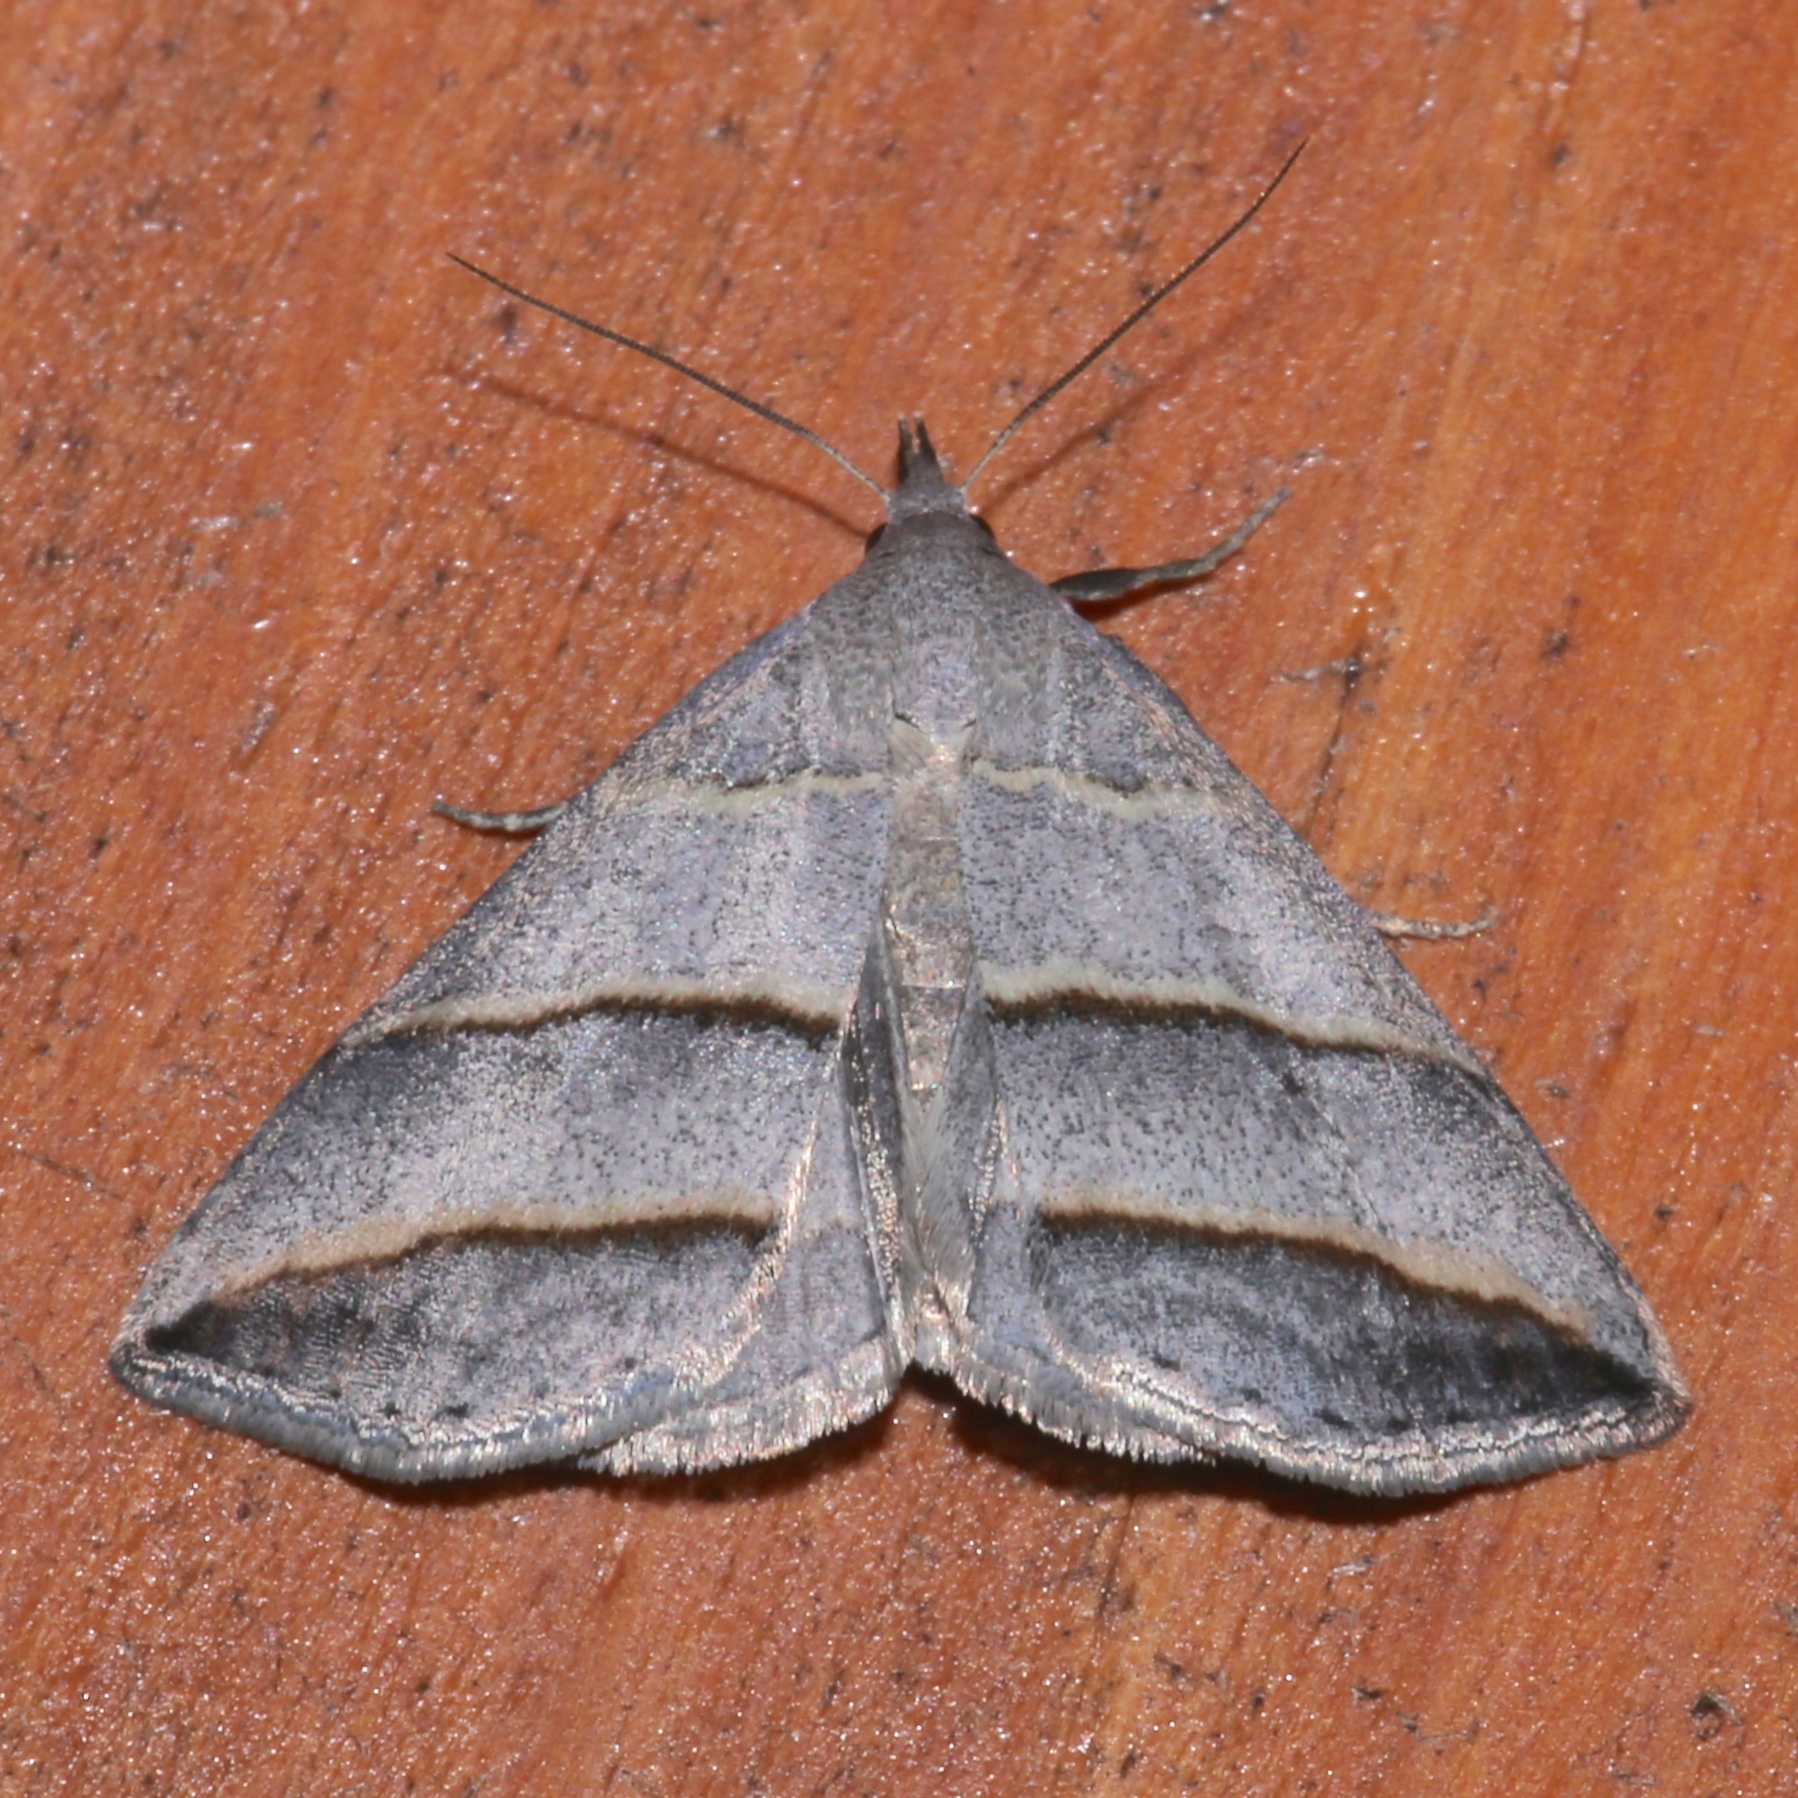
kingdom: Animalia
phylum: Arthropoda
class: Insecta
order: Lepidoptera
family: Erebidae
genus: Colobochyla
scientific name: Colobochyla interpuncta
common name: Yellow-lined owlet
